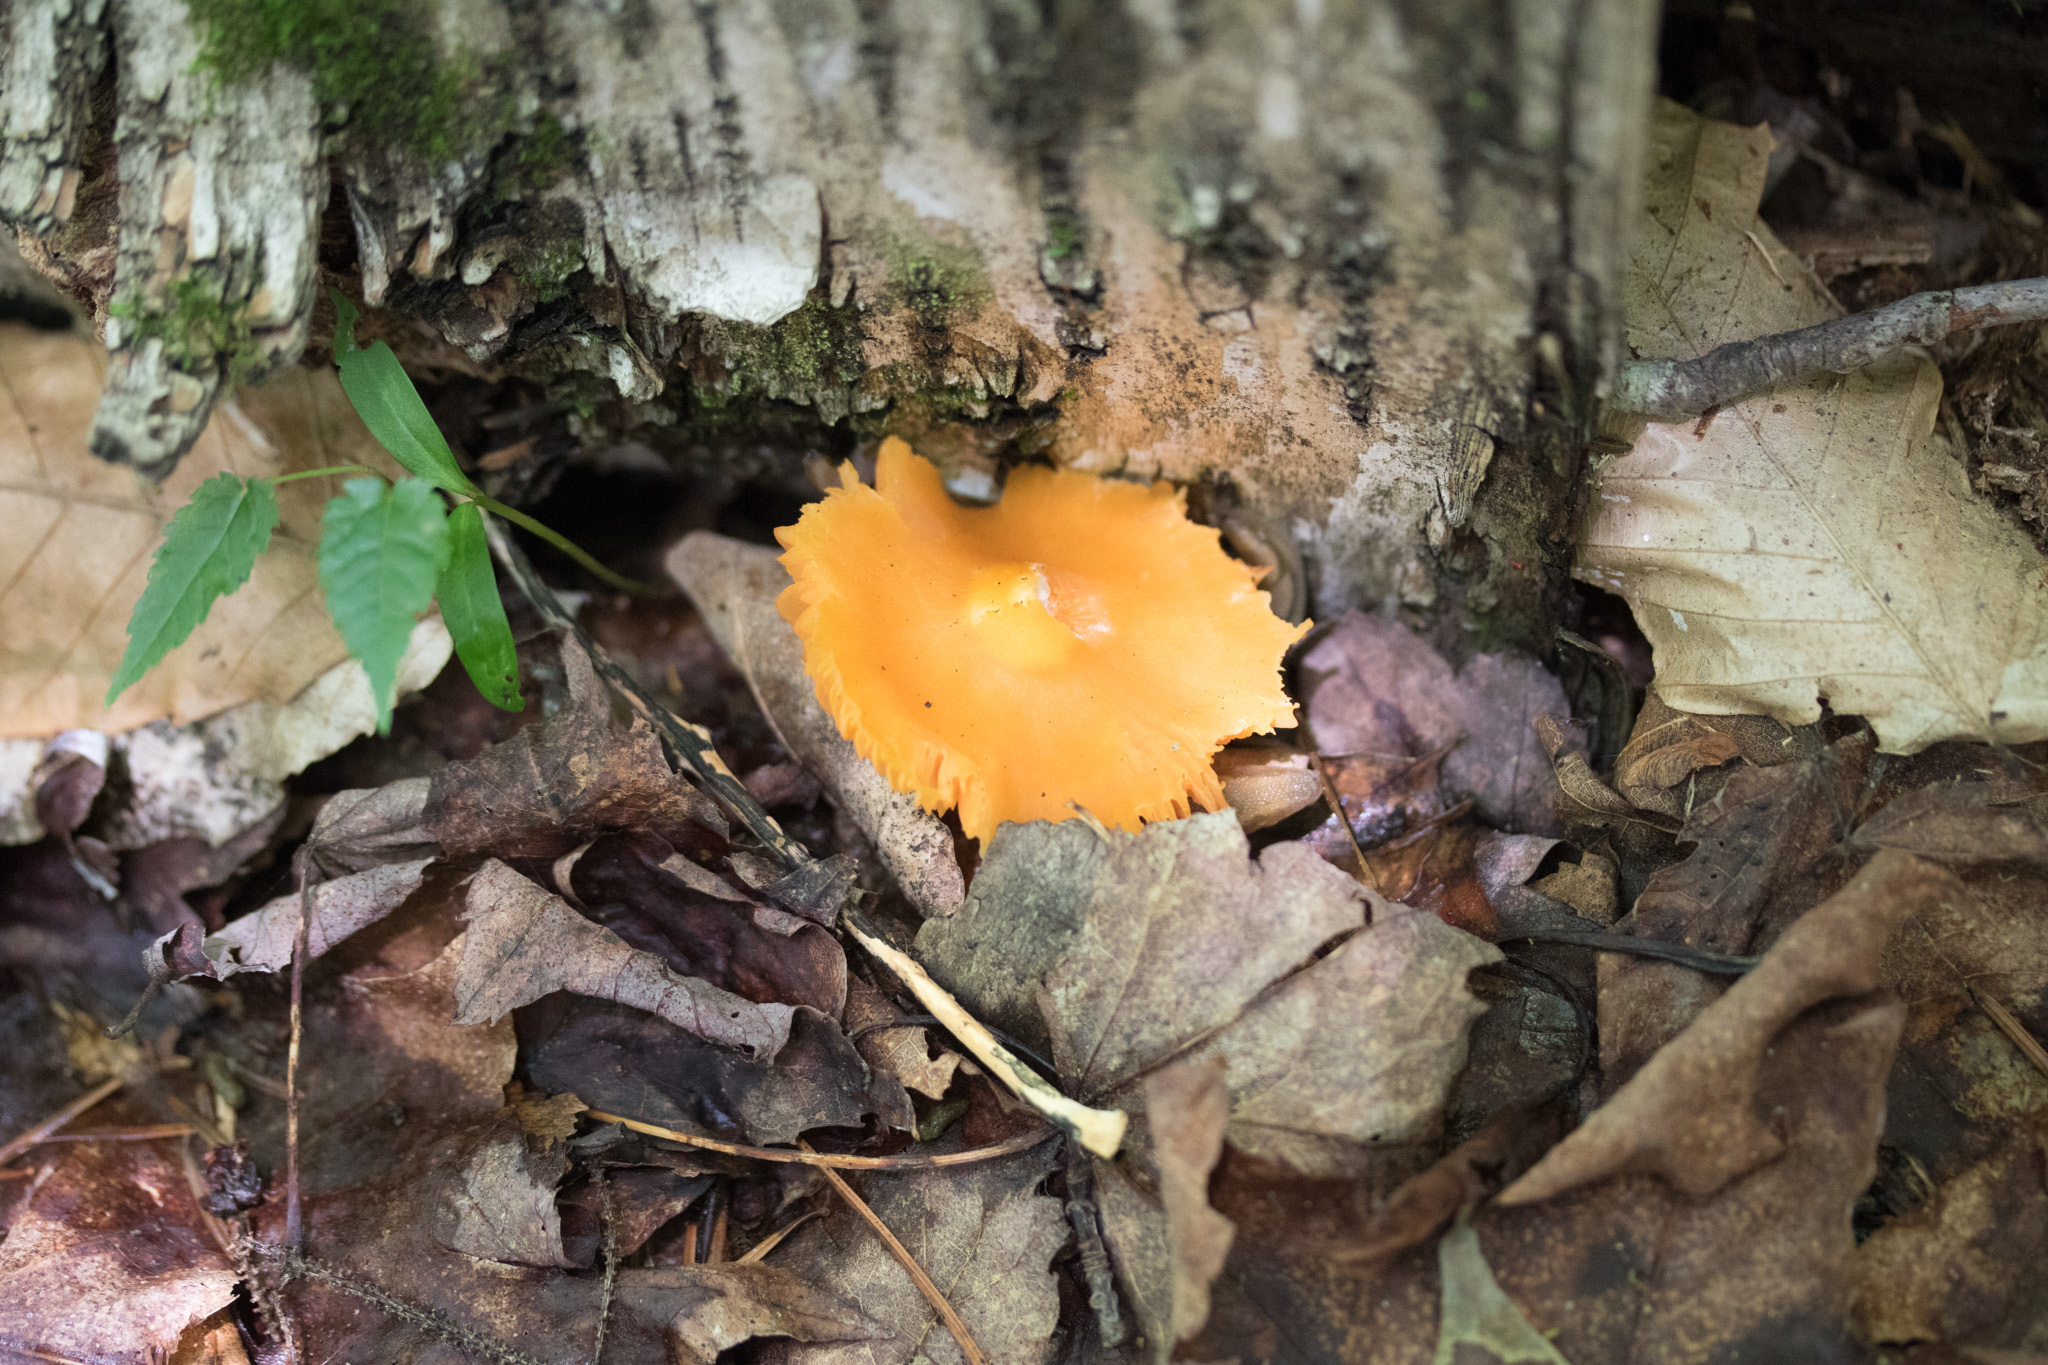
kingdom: Fungi
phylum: Basidiomycota
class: Agaricomycetes
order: Agaricales
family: Hygrophoraceae
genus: Humidicutis
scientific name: Humidicutis marginata
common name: Orange gilled waxcap
